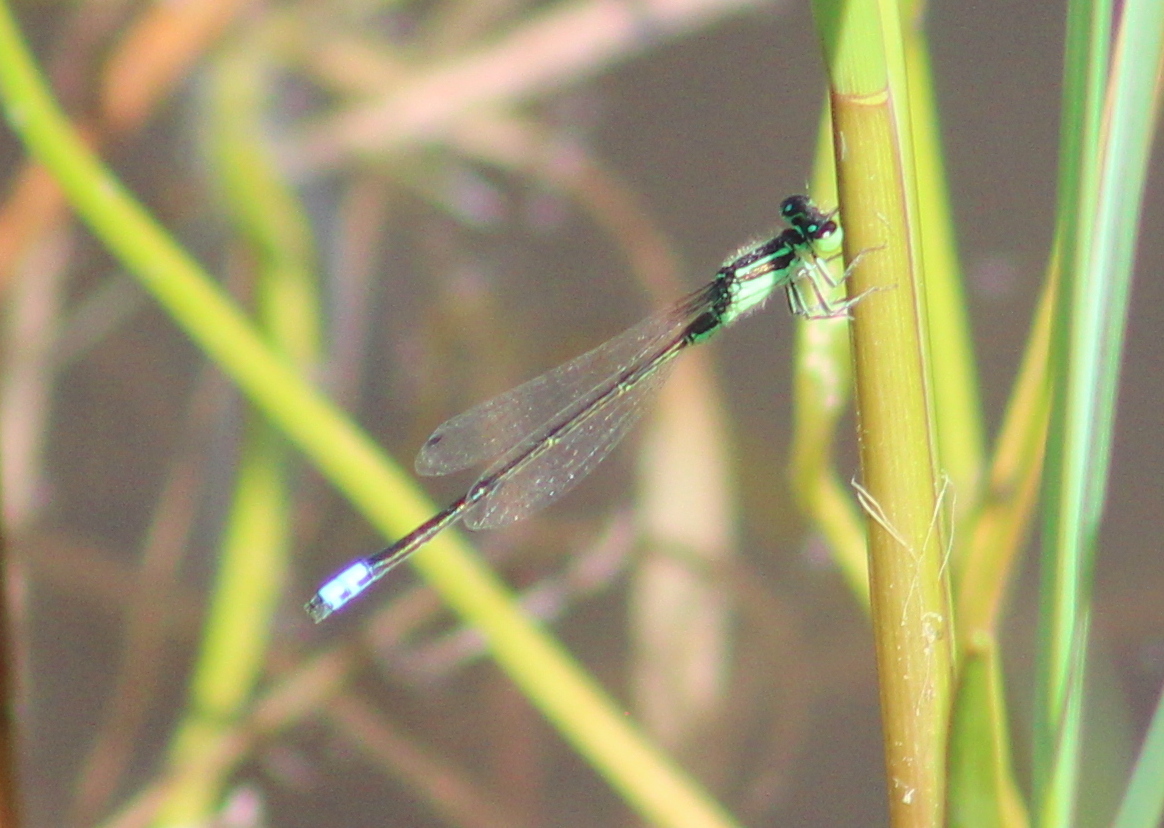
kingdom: Animalia
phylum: Arthropoda
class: Insecta
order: Odonata
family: Coenagrionidae
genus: Ischnura
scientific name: Ischnura verticalis
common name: Eastern forktail
